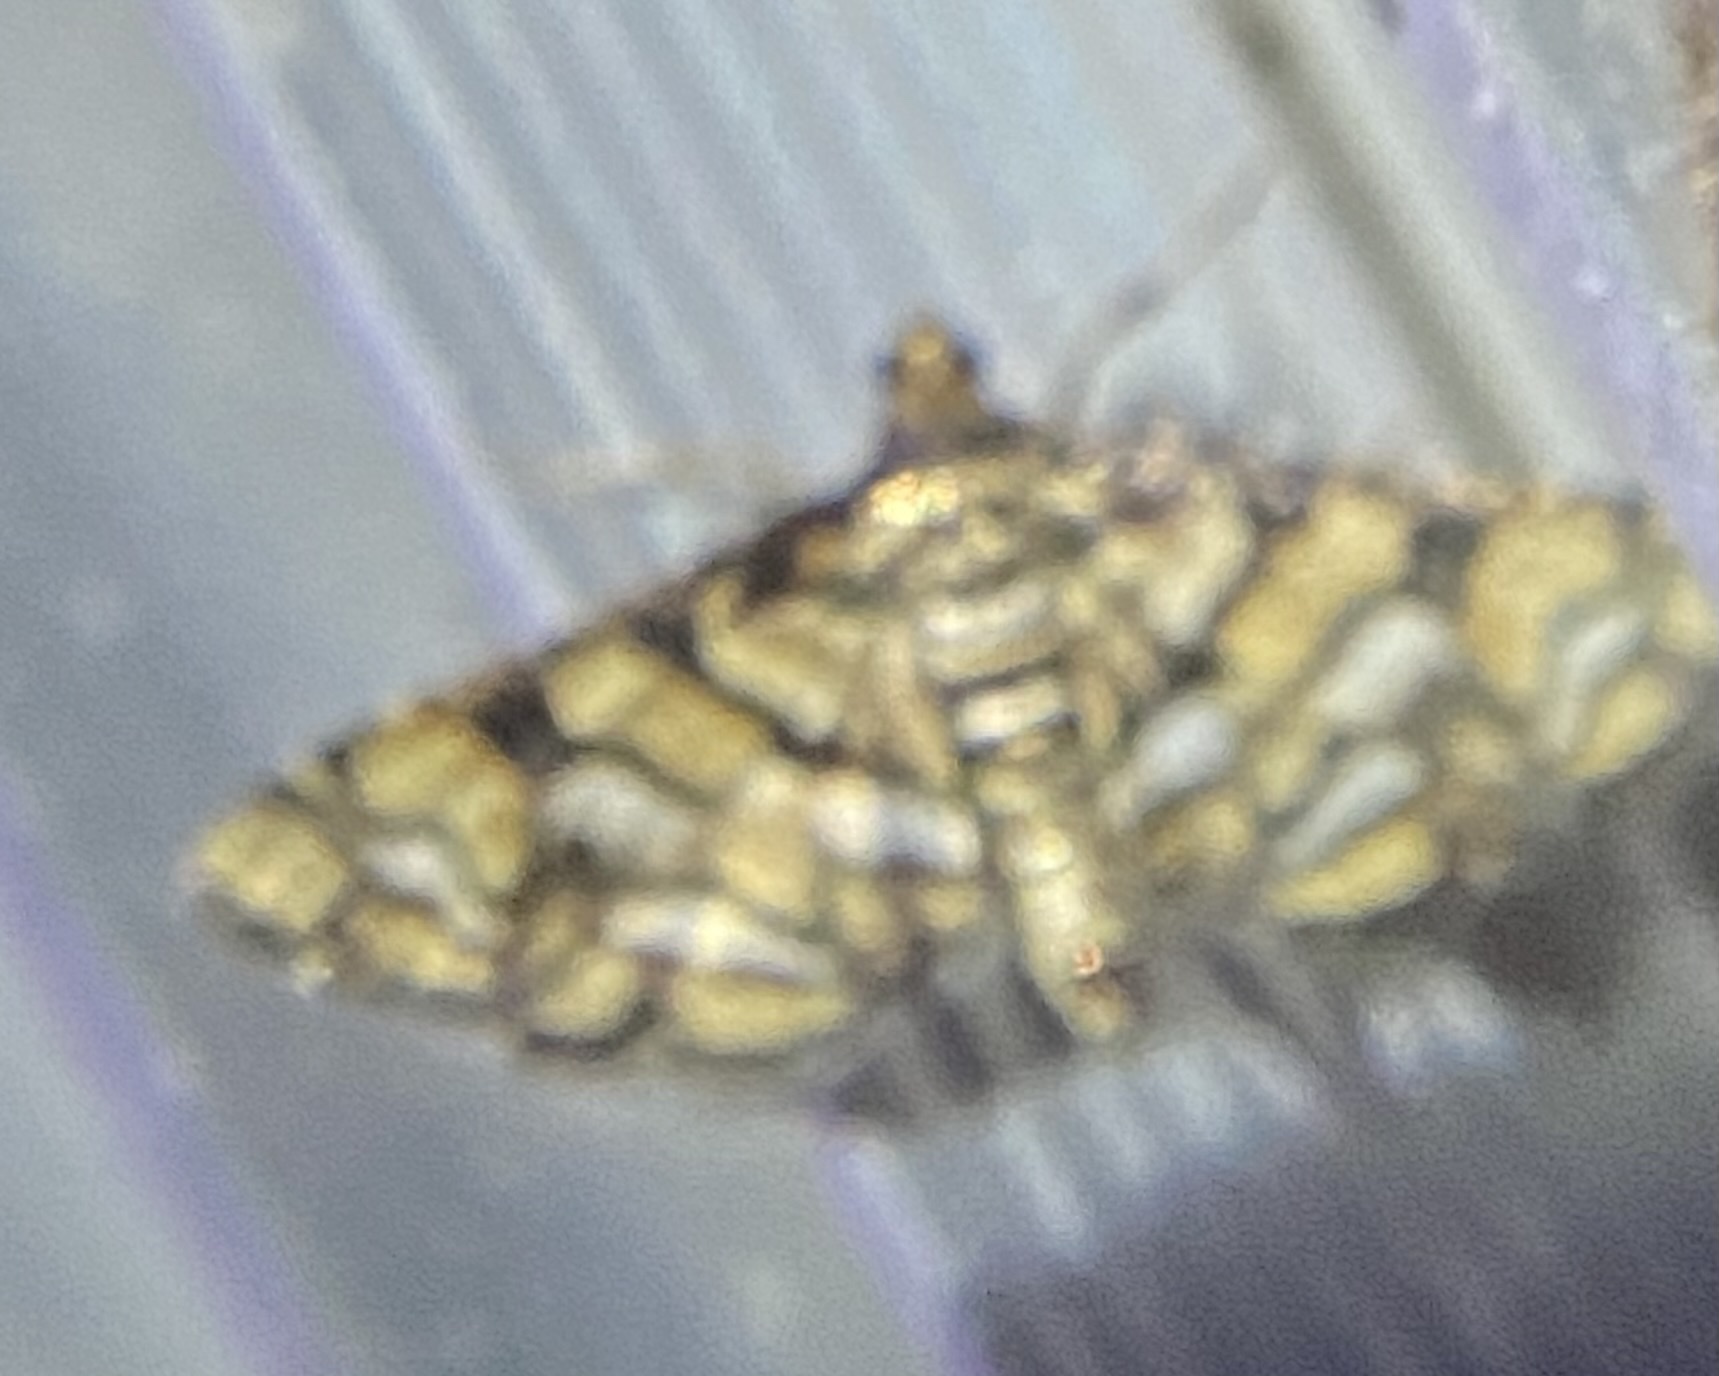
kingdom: Animalia
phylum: Arthropoda
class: Insecta
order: Lepidoptera
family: Crambidae
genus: Hileithia
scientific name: Hileithia magualis
